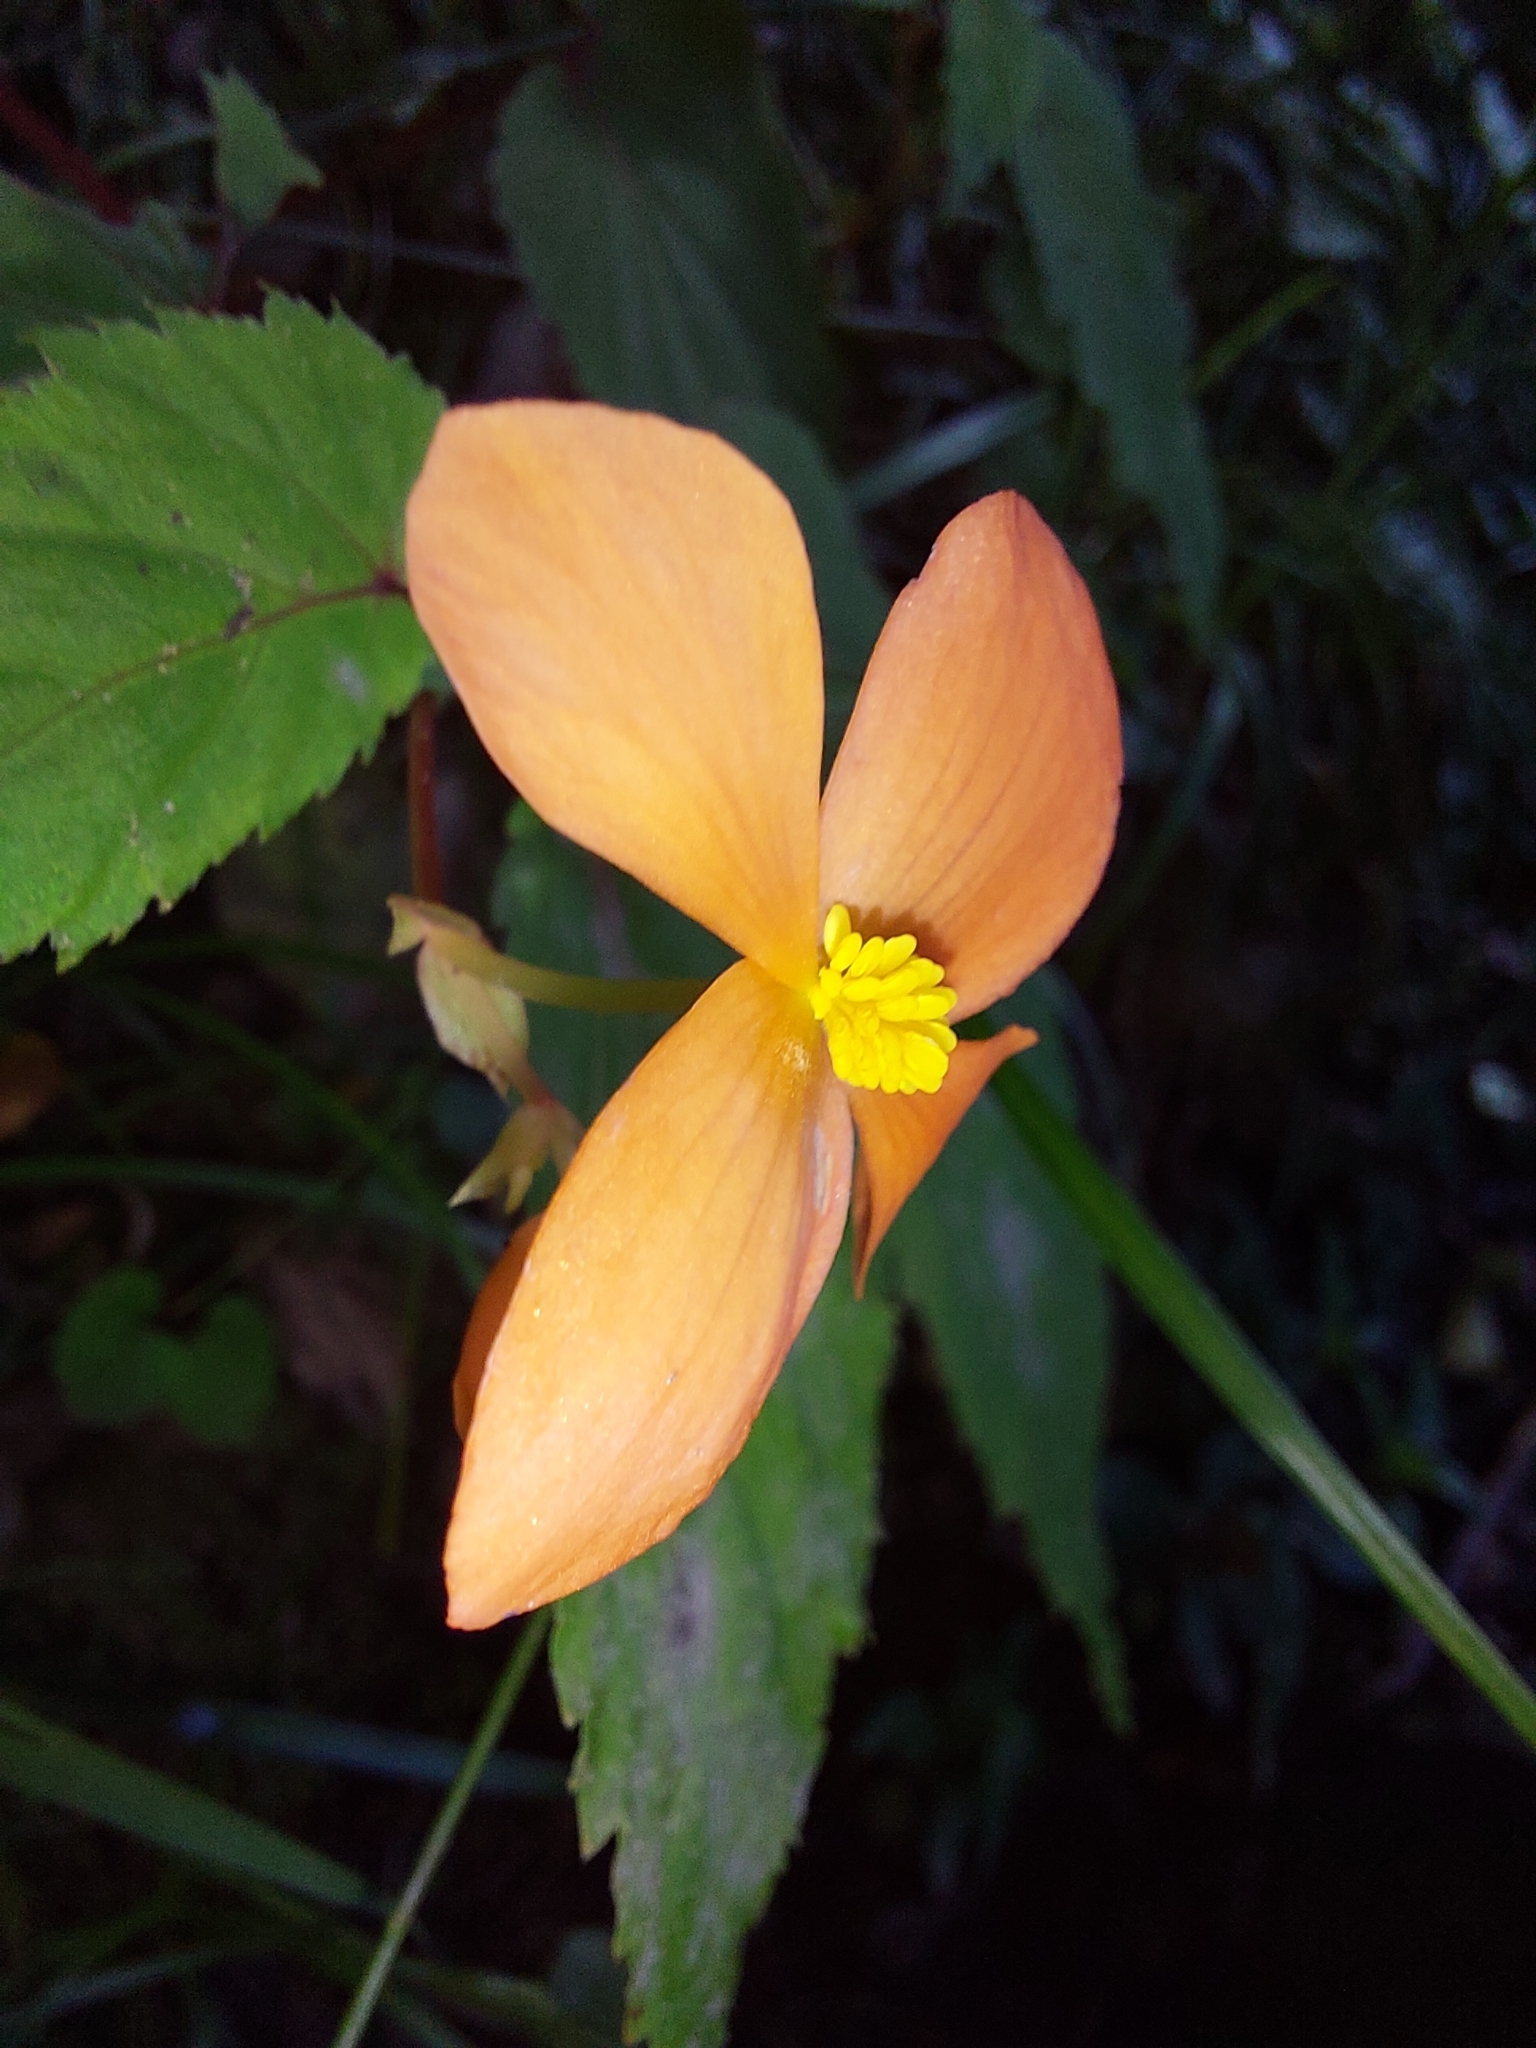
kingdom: Plantae
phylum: Tracheophyta
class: Magnoliopsida
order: Cucurbitales
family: Begoniaceae
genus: Begonia
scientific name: Begonia sutherlandii
